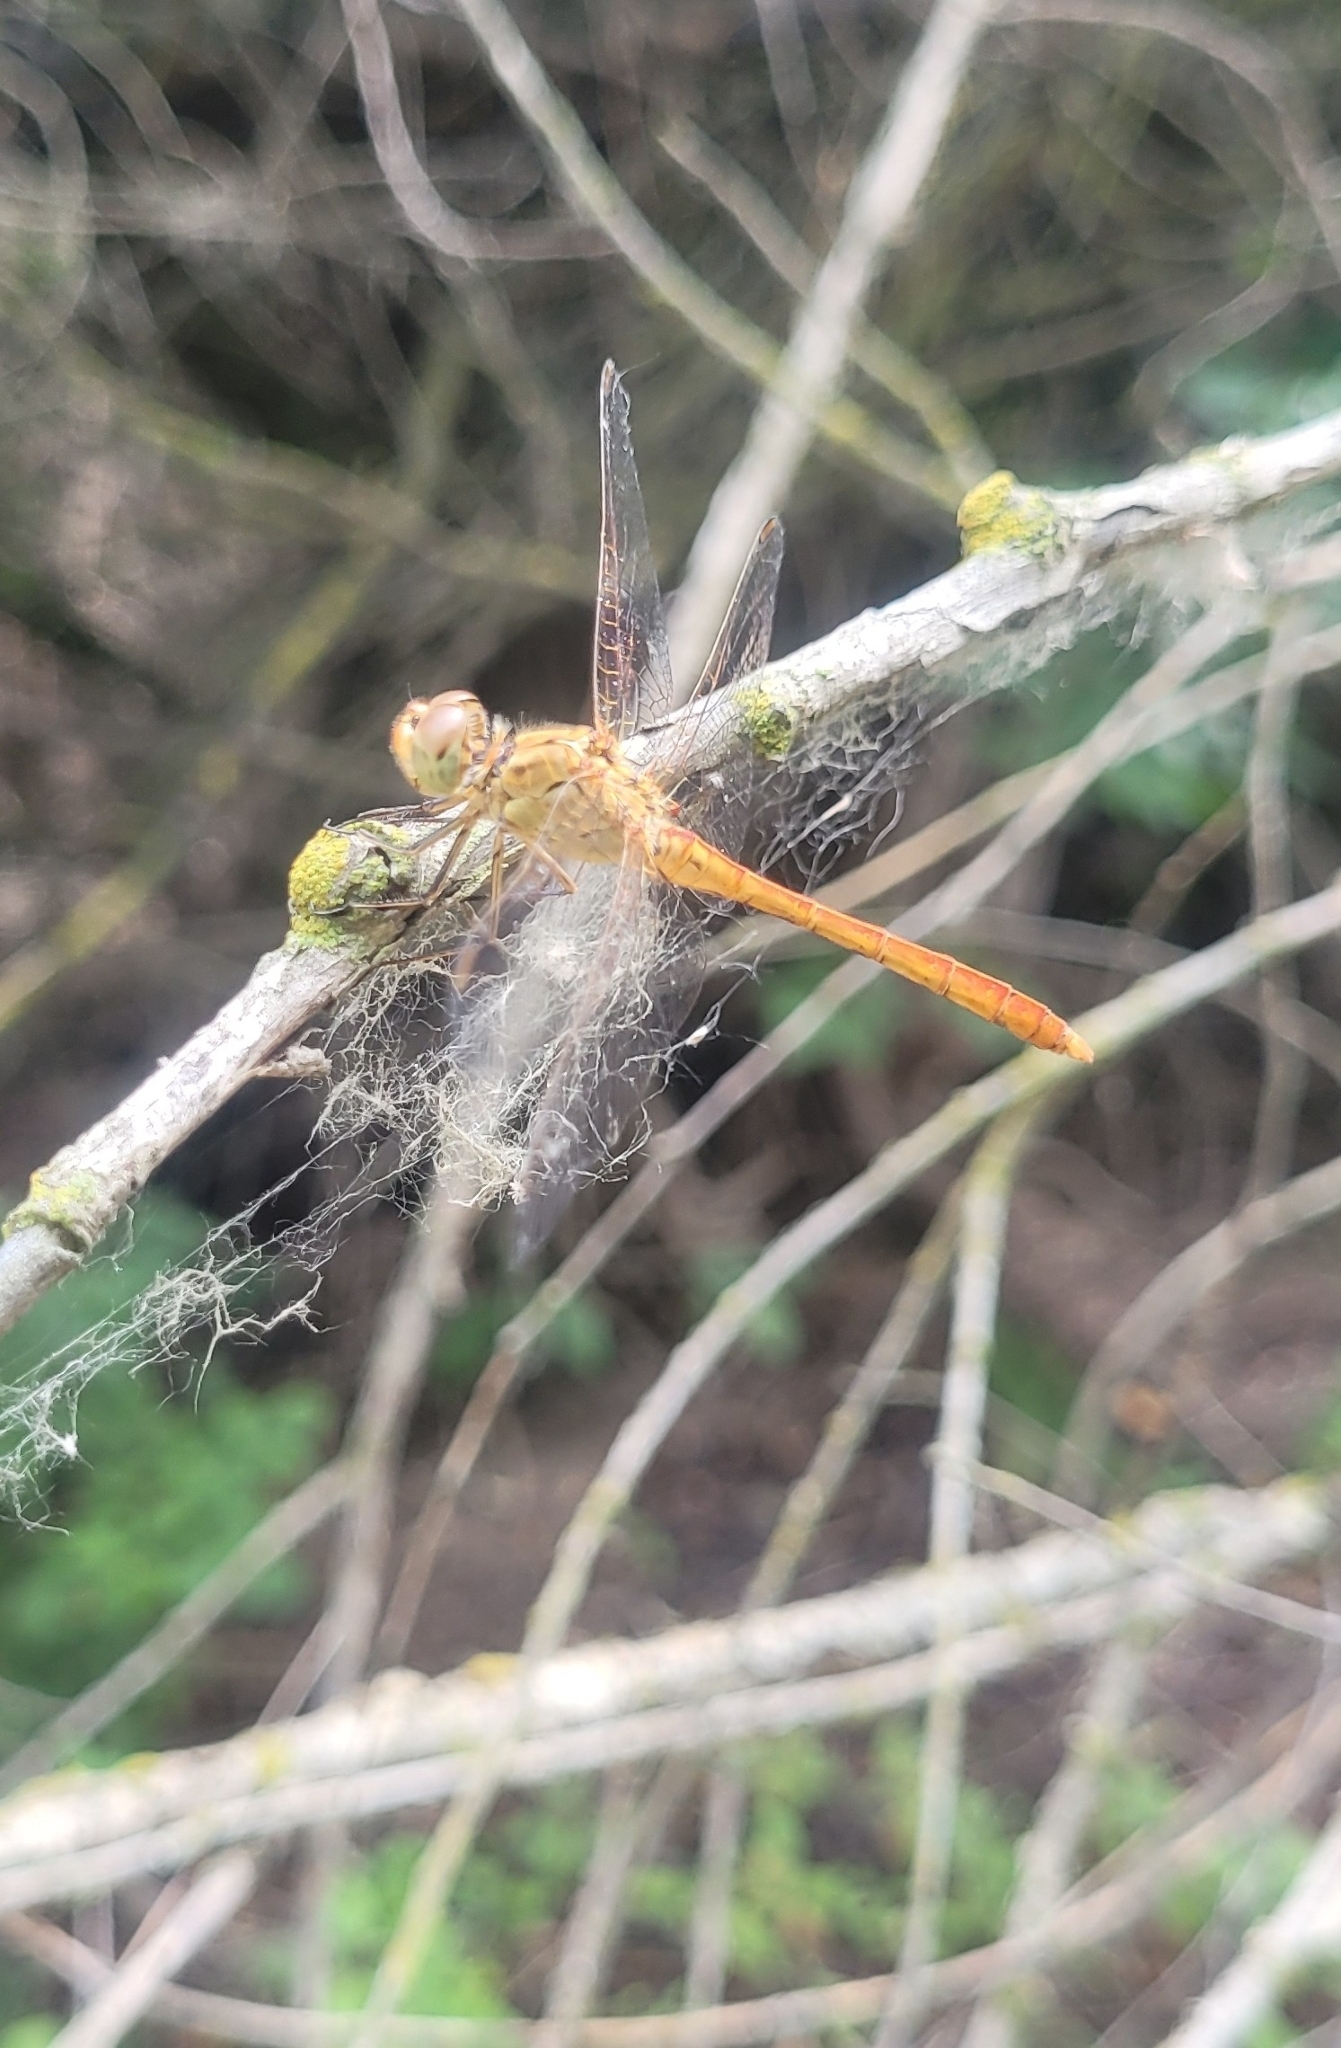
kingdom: Animalia
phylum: Arthropoda
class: Insecta
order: Odonata
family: Libellulidae
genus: Sympetrum
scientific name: Sympetrum meridionale
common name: Southern darter
